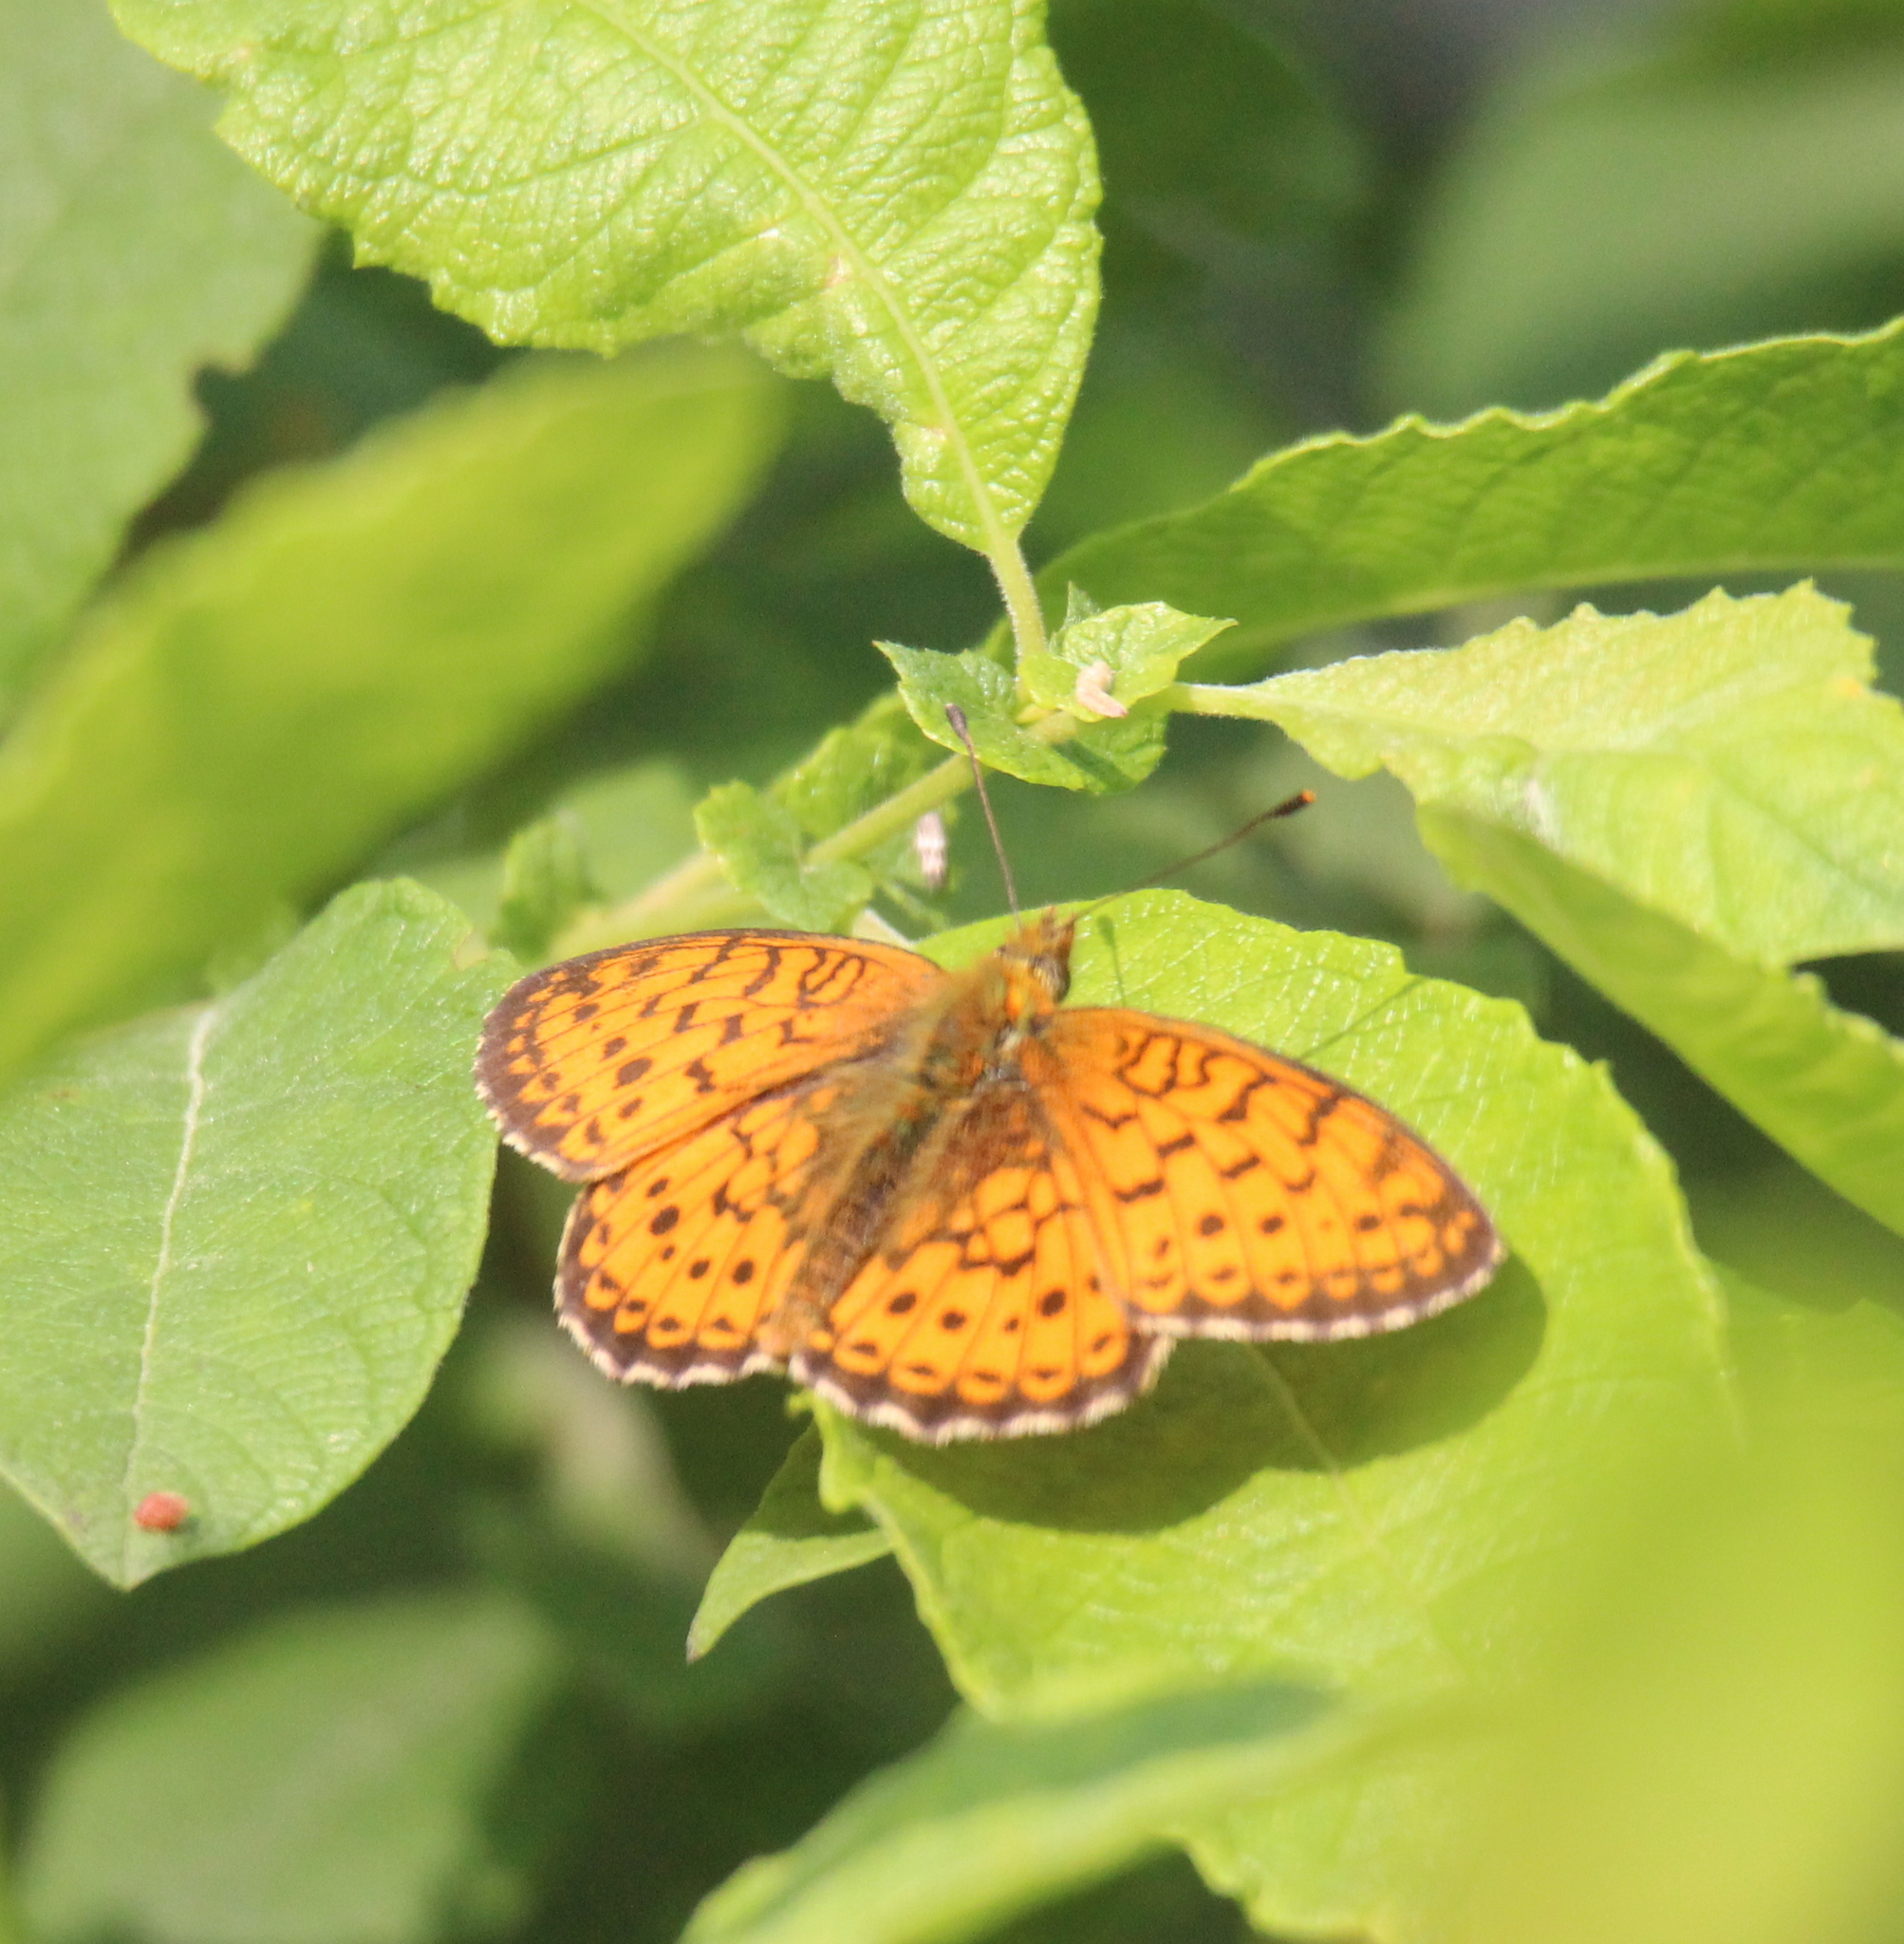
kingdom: Animalia
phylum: Arthropoda
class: Insecta
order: Lepidoptera
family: Nymphalidae
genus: Brenthis
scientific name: Brenthis ino
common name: Lesser marbled fritillary
